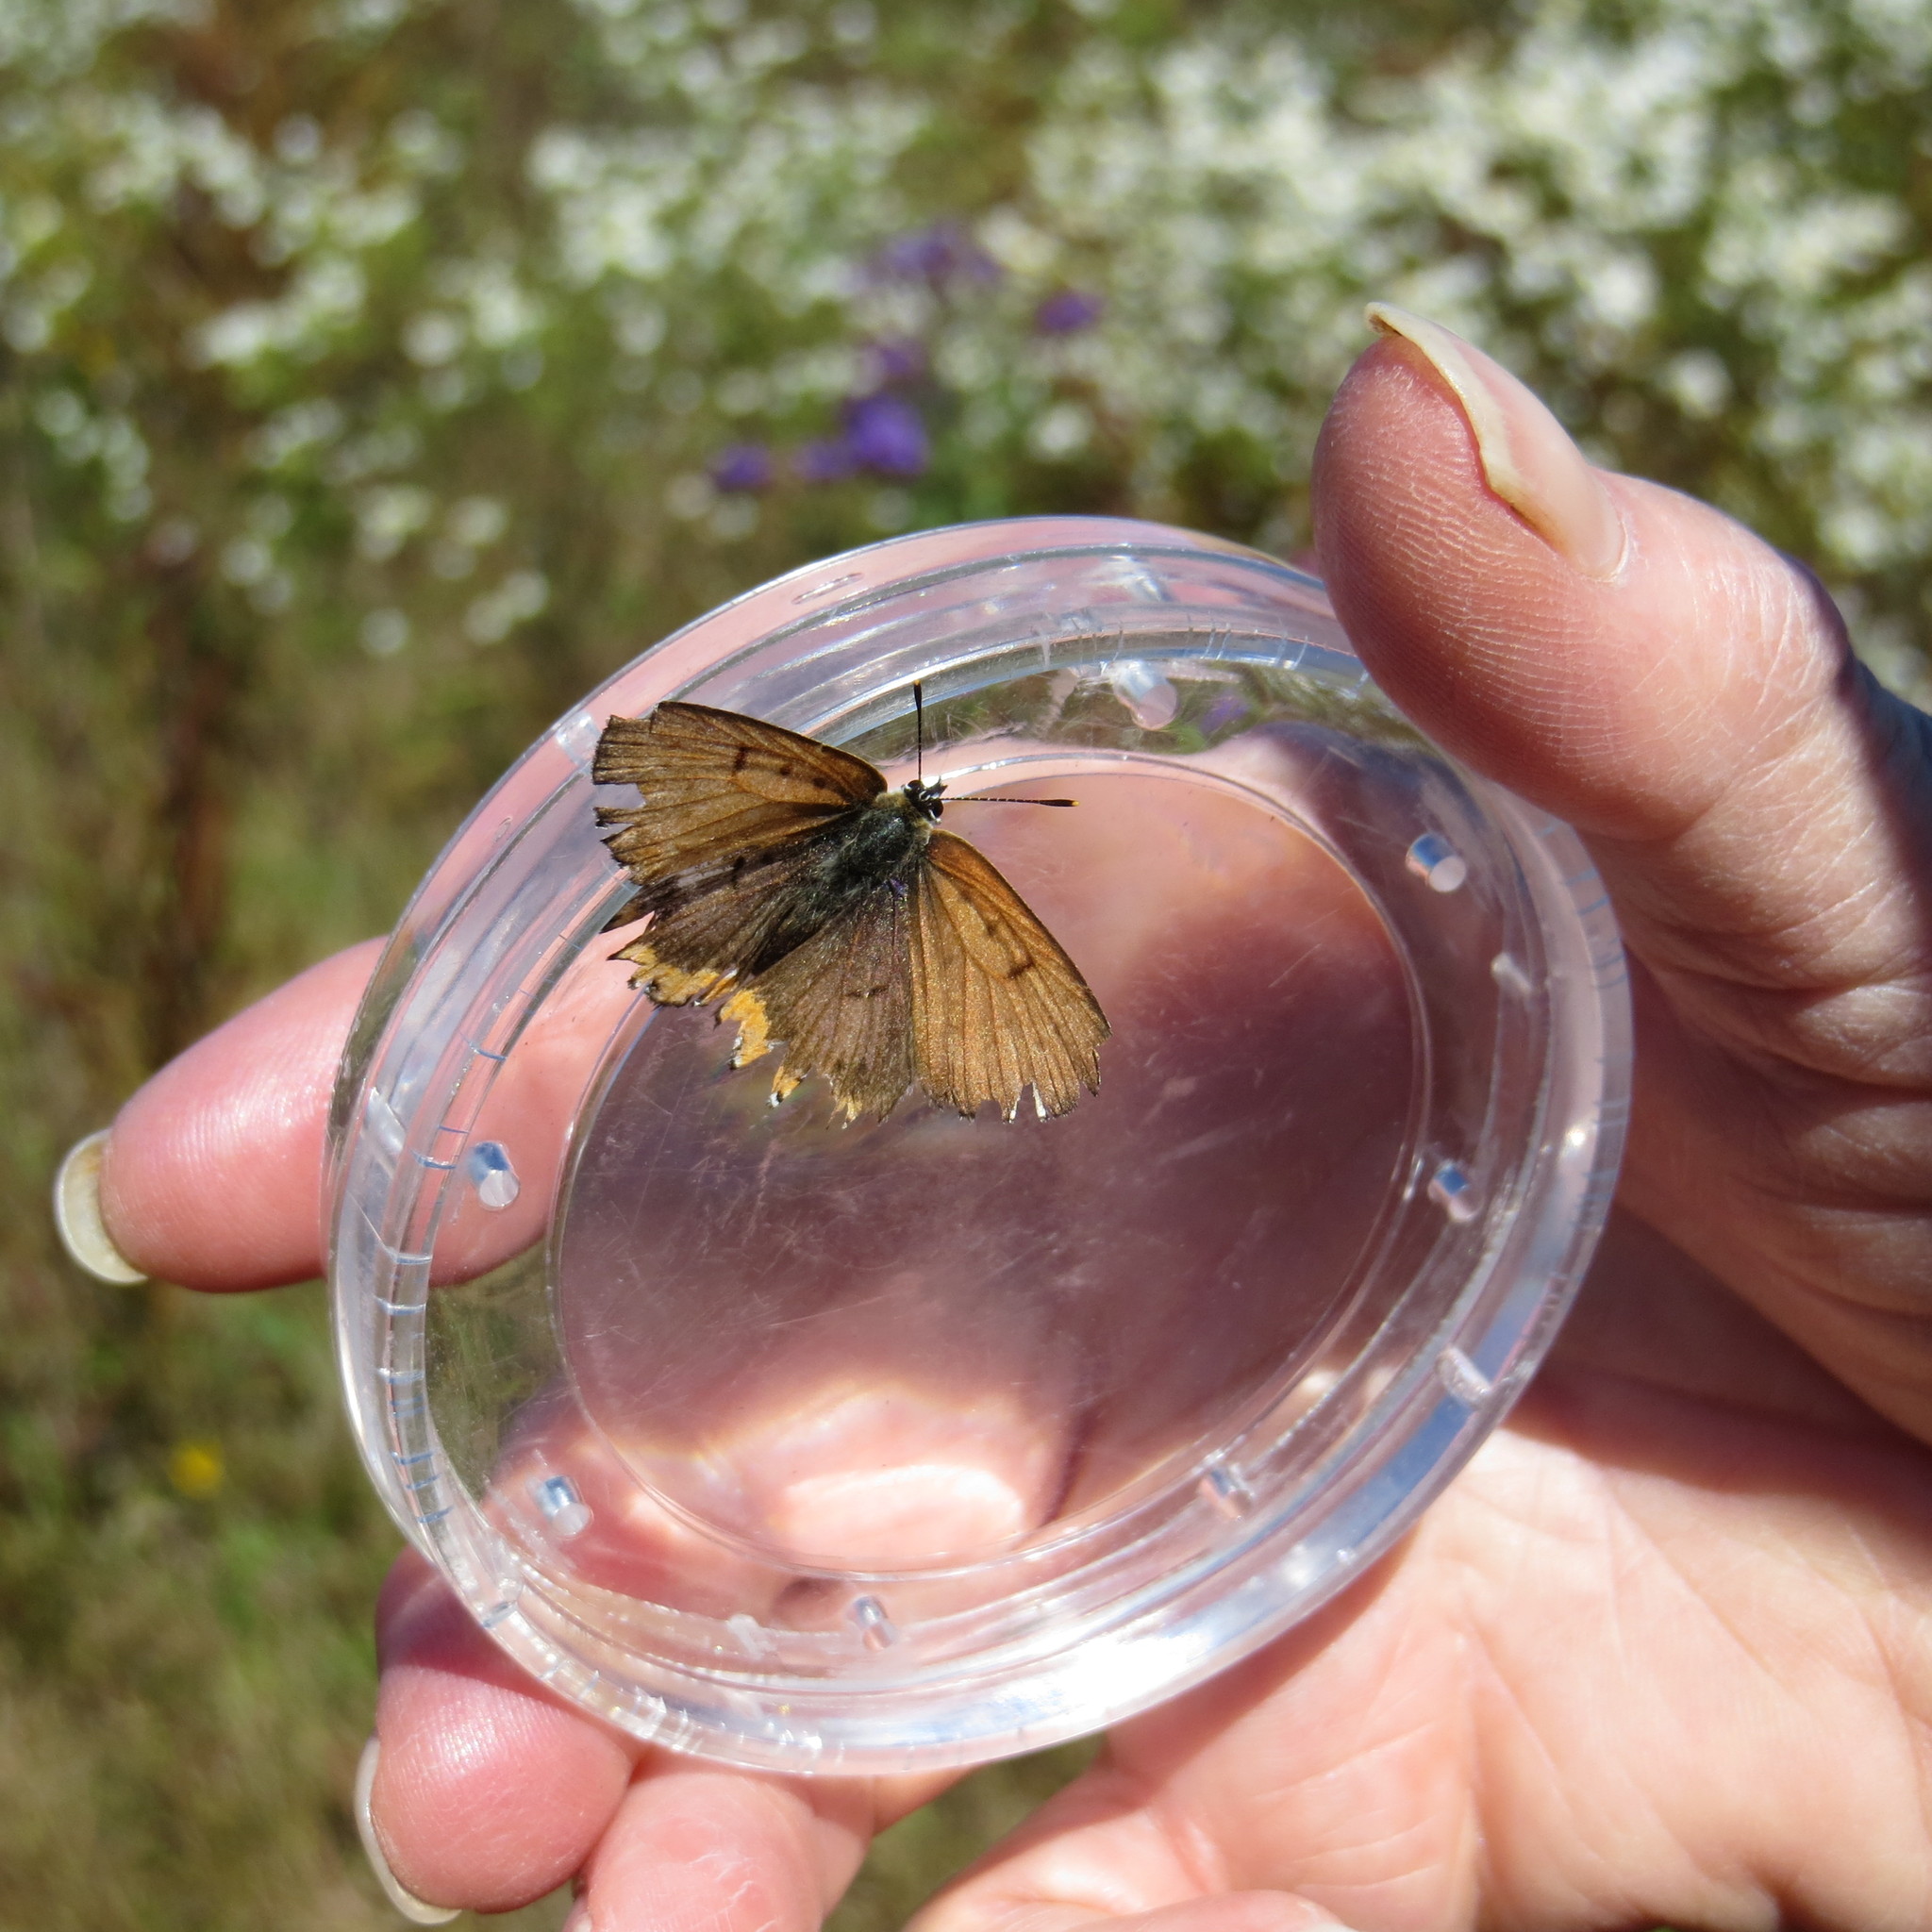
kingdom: Animalia
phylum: Arthropoda
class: Insecta
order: Lepidoptera
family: Lycaenidae
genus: Tharsalea
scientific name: Tharsalea hyllus
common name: Bronze copper
